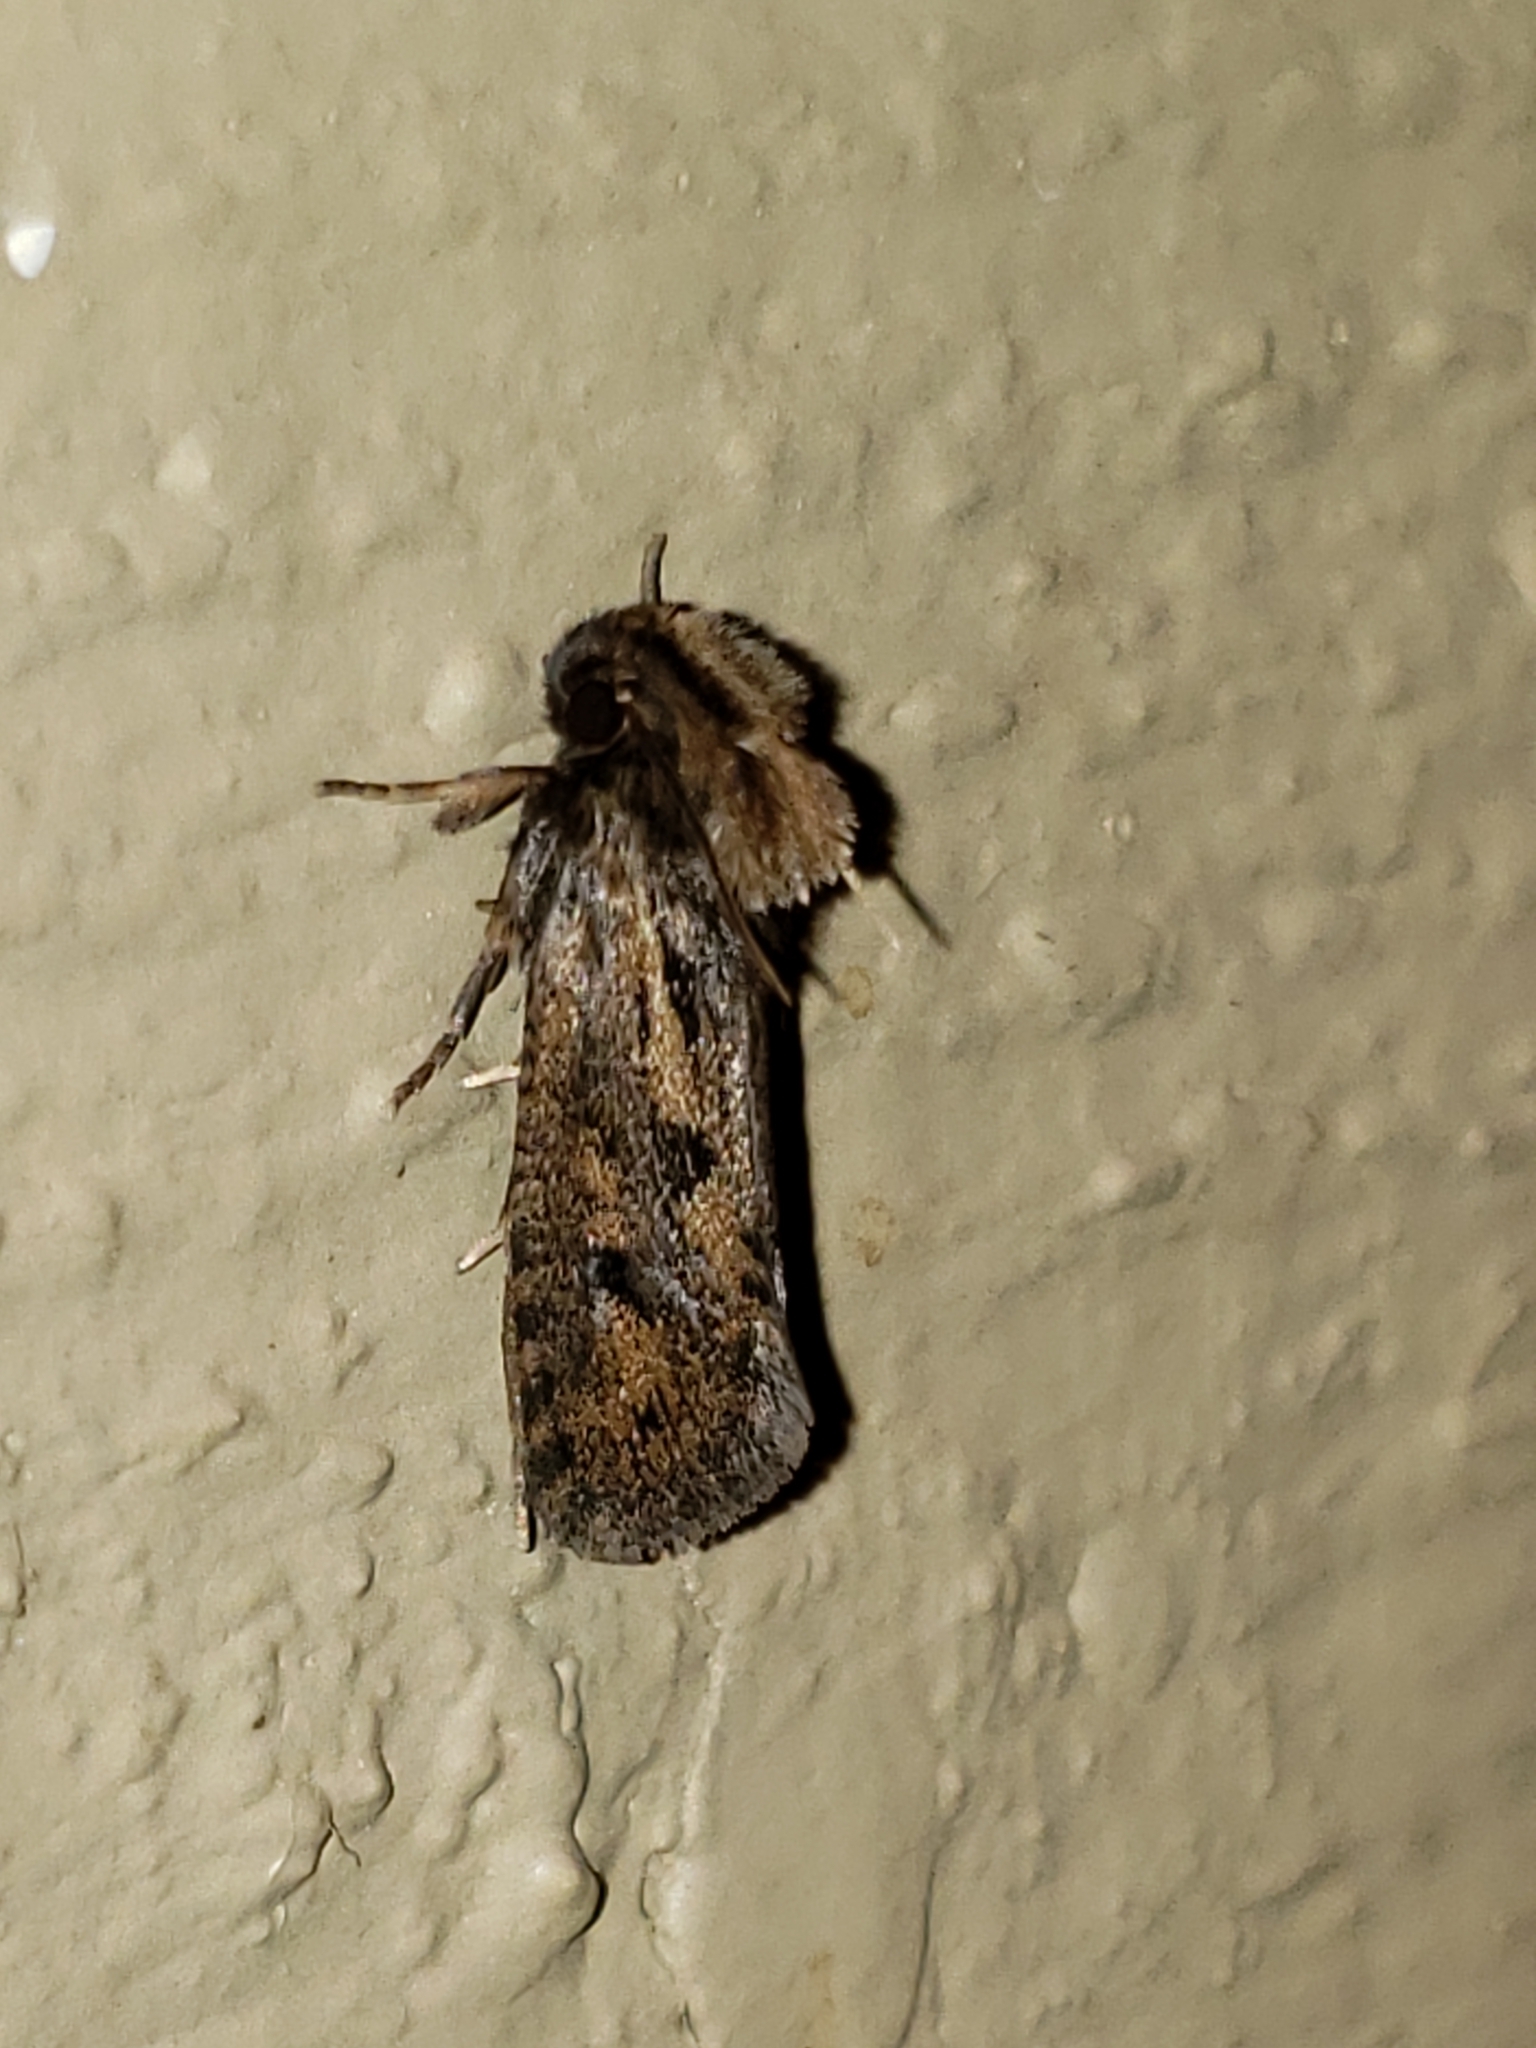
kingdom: Animalia
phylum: Arthropoda
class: Insecta
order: Lepidoptera
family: Tineidae
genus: Acrolophus
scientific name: Acrolophus popeanella
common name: Clemens' grass tubeworm moth
